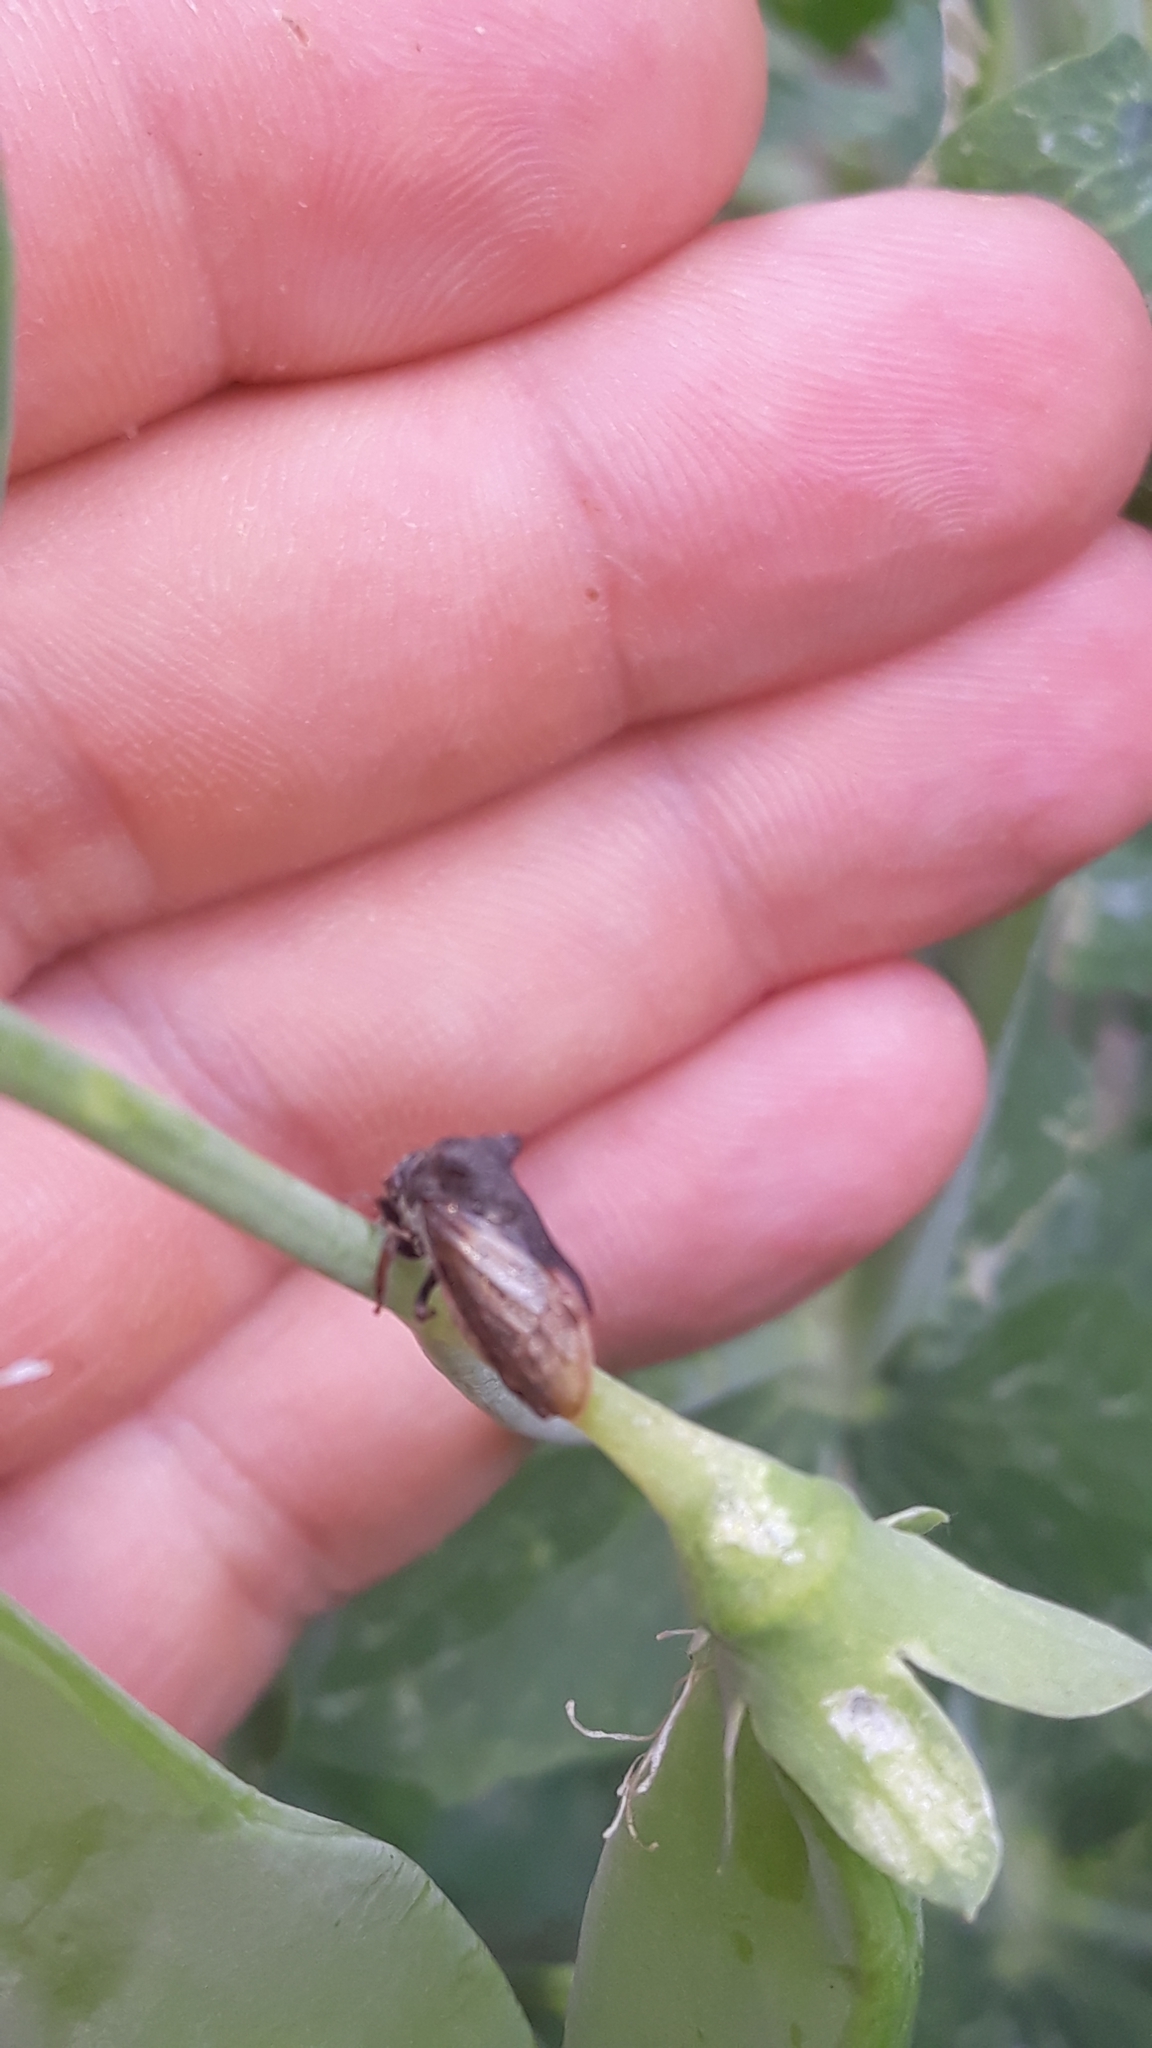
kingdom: Animalia
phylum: Arthropoda
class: Insecta
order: Hemiptera
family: Membracidae
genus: Centrotus
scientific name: Centrotus cornuta
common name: Treehopper
